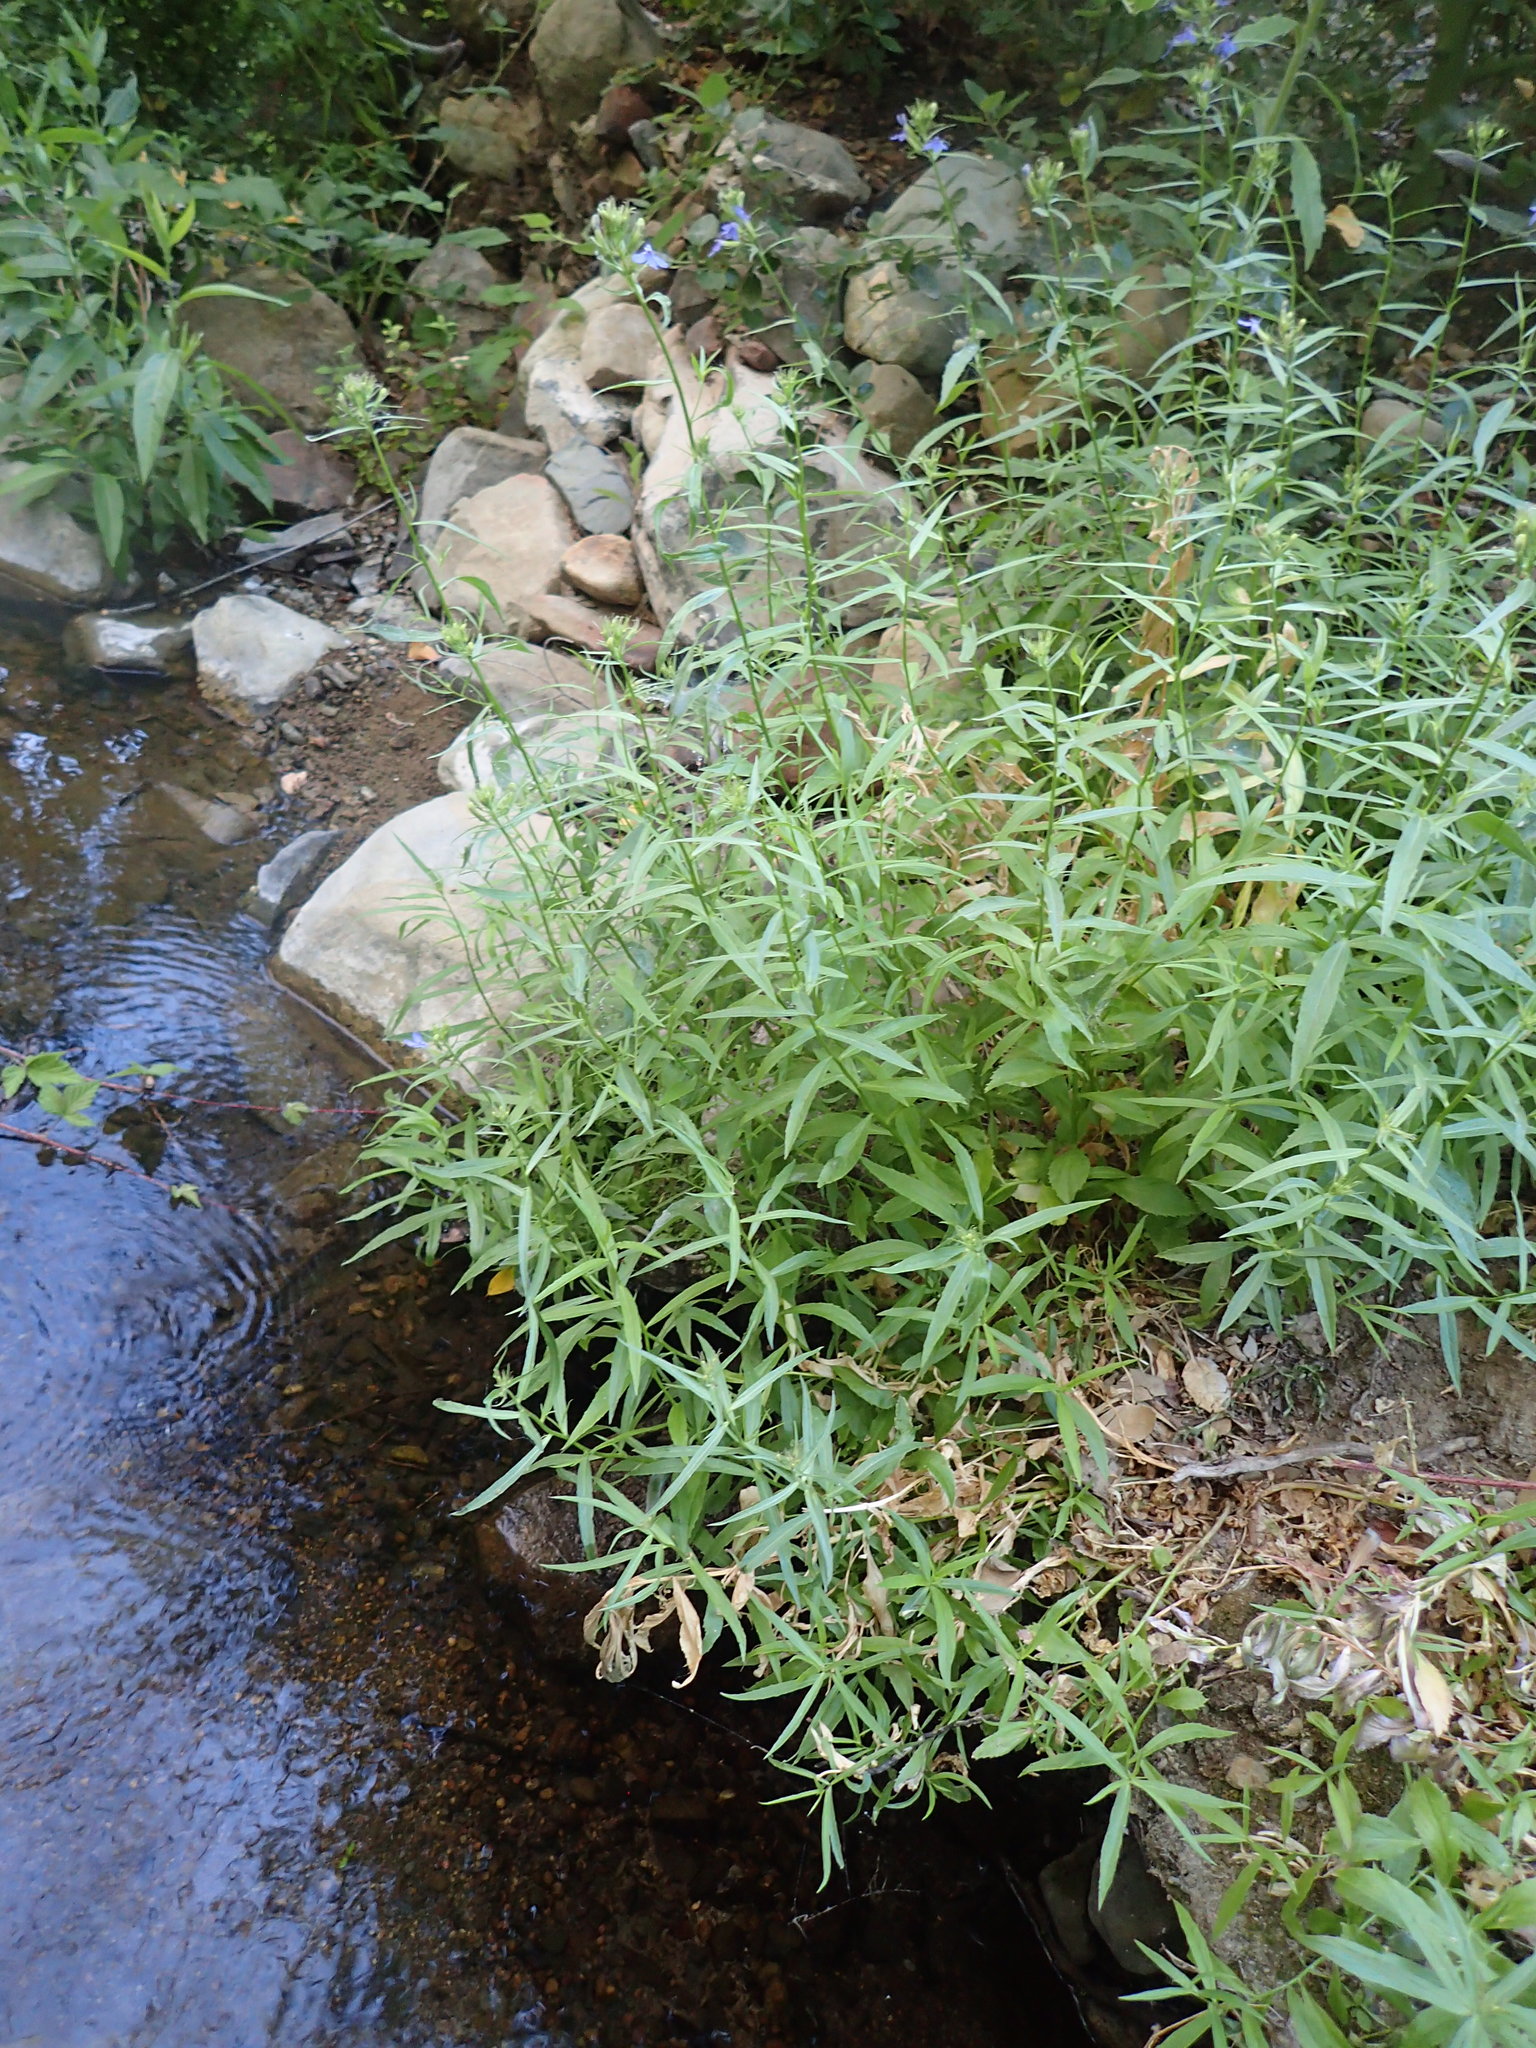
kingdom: Plantae
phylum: Tracheophyta
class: Magnoliopsida
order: Asterales
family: Campanulaceae
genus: Palmerella
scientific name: Palmerella debilis
